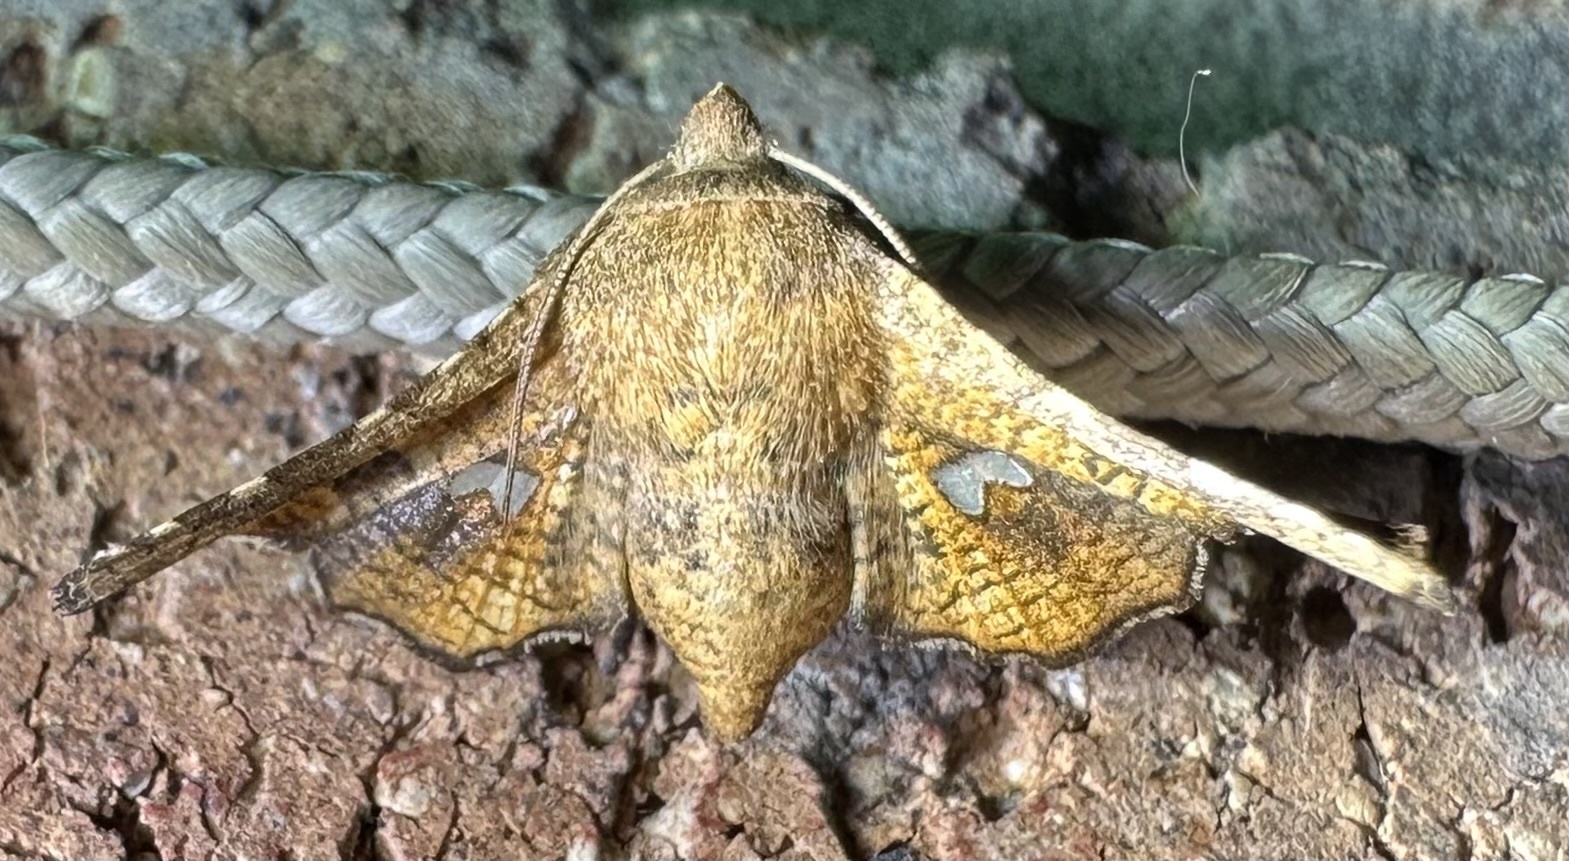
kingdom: Animalia
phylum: Arthropoda
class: Insecta
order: Lepidoptera
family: Thyrididae
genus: Dysodia
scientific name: Dysodia constellata
